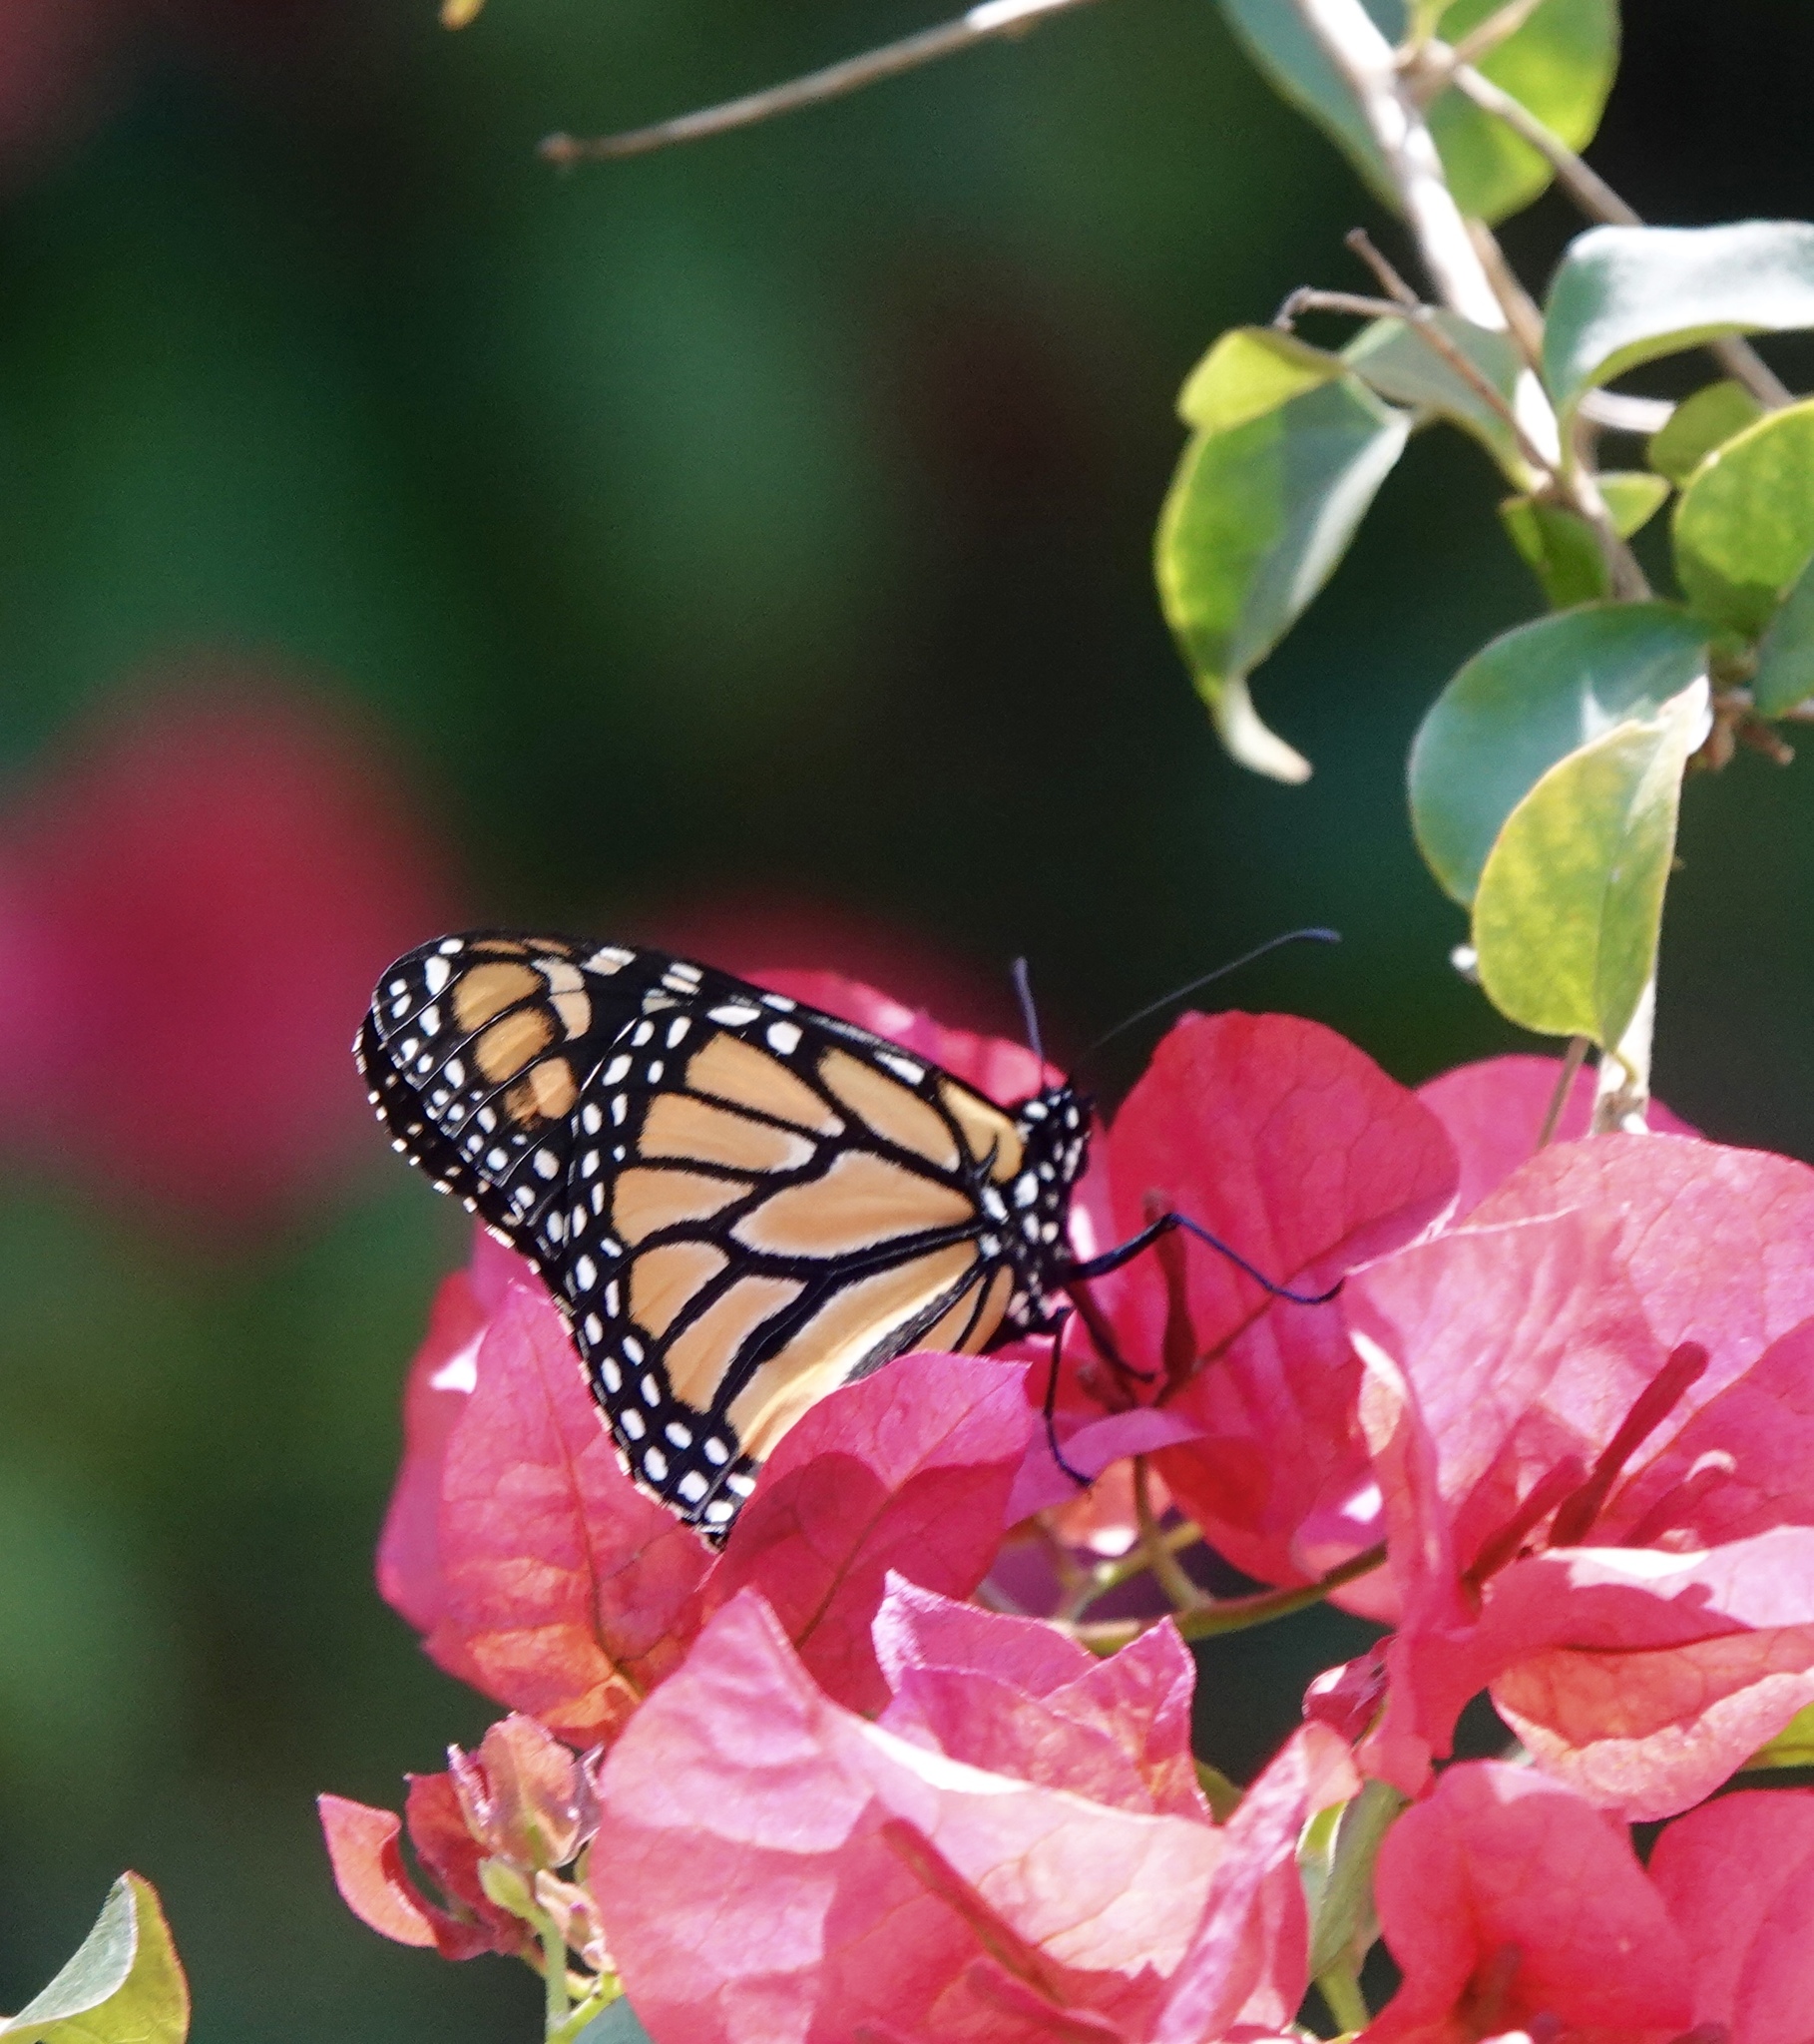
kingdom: Animalia
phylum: Arthropoda
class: Insecta
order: Lepidoptera
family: Nymphalidae
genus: Danaus
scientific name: Danaus plexippus
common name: Monarch
